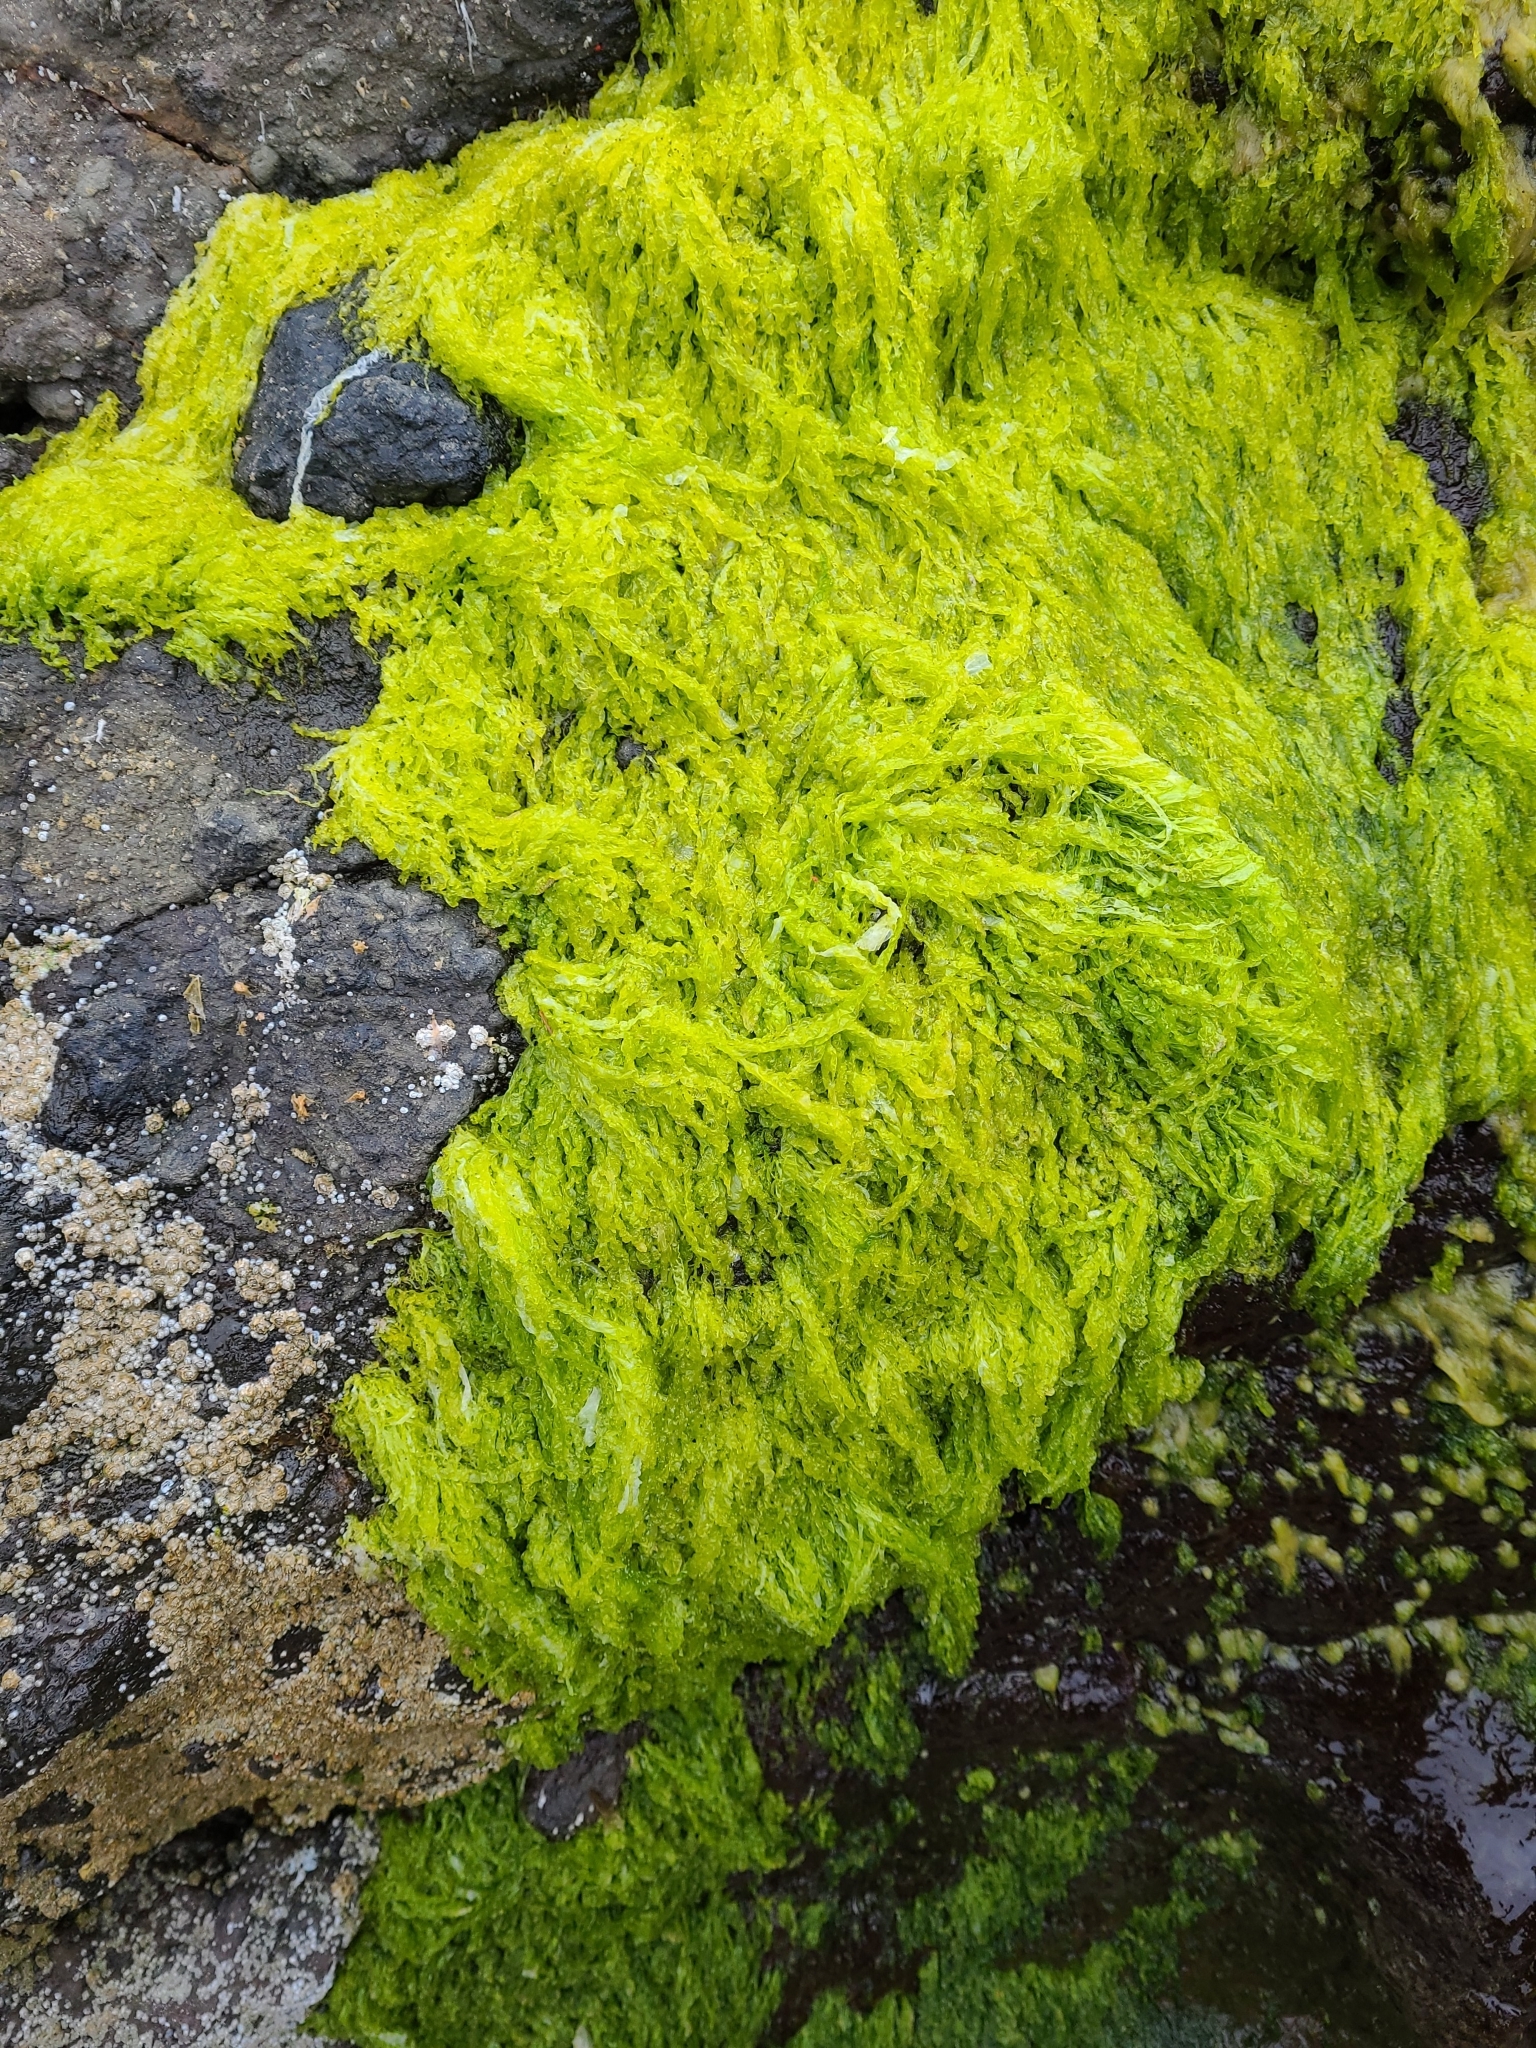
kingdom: Plantae
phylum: Chlorophyta
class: Ulvophyceae
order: Ulvales
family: Ulvaceae
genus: Ulva
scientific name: Ulva intestinalis
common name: Gut weed
